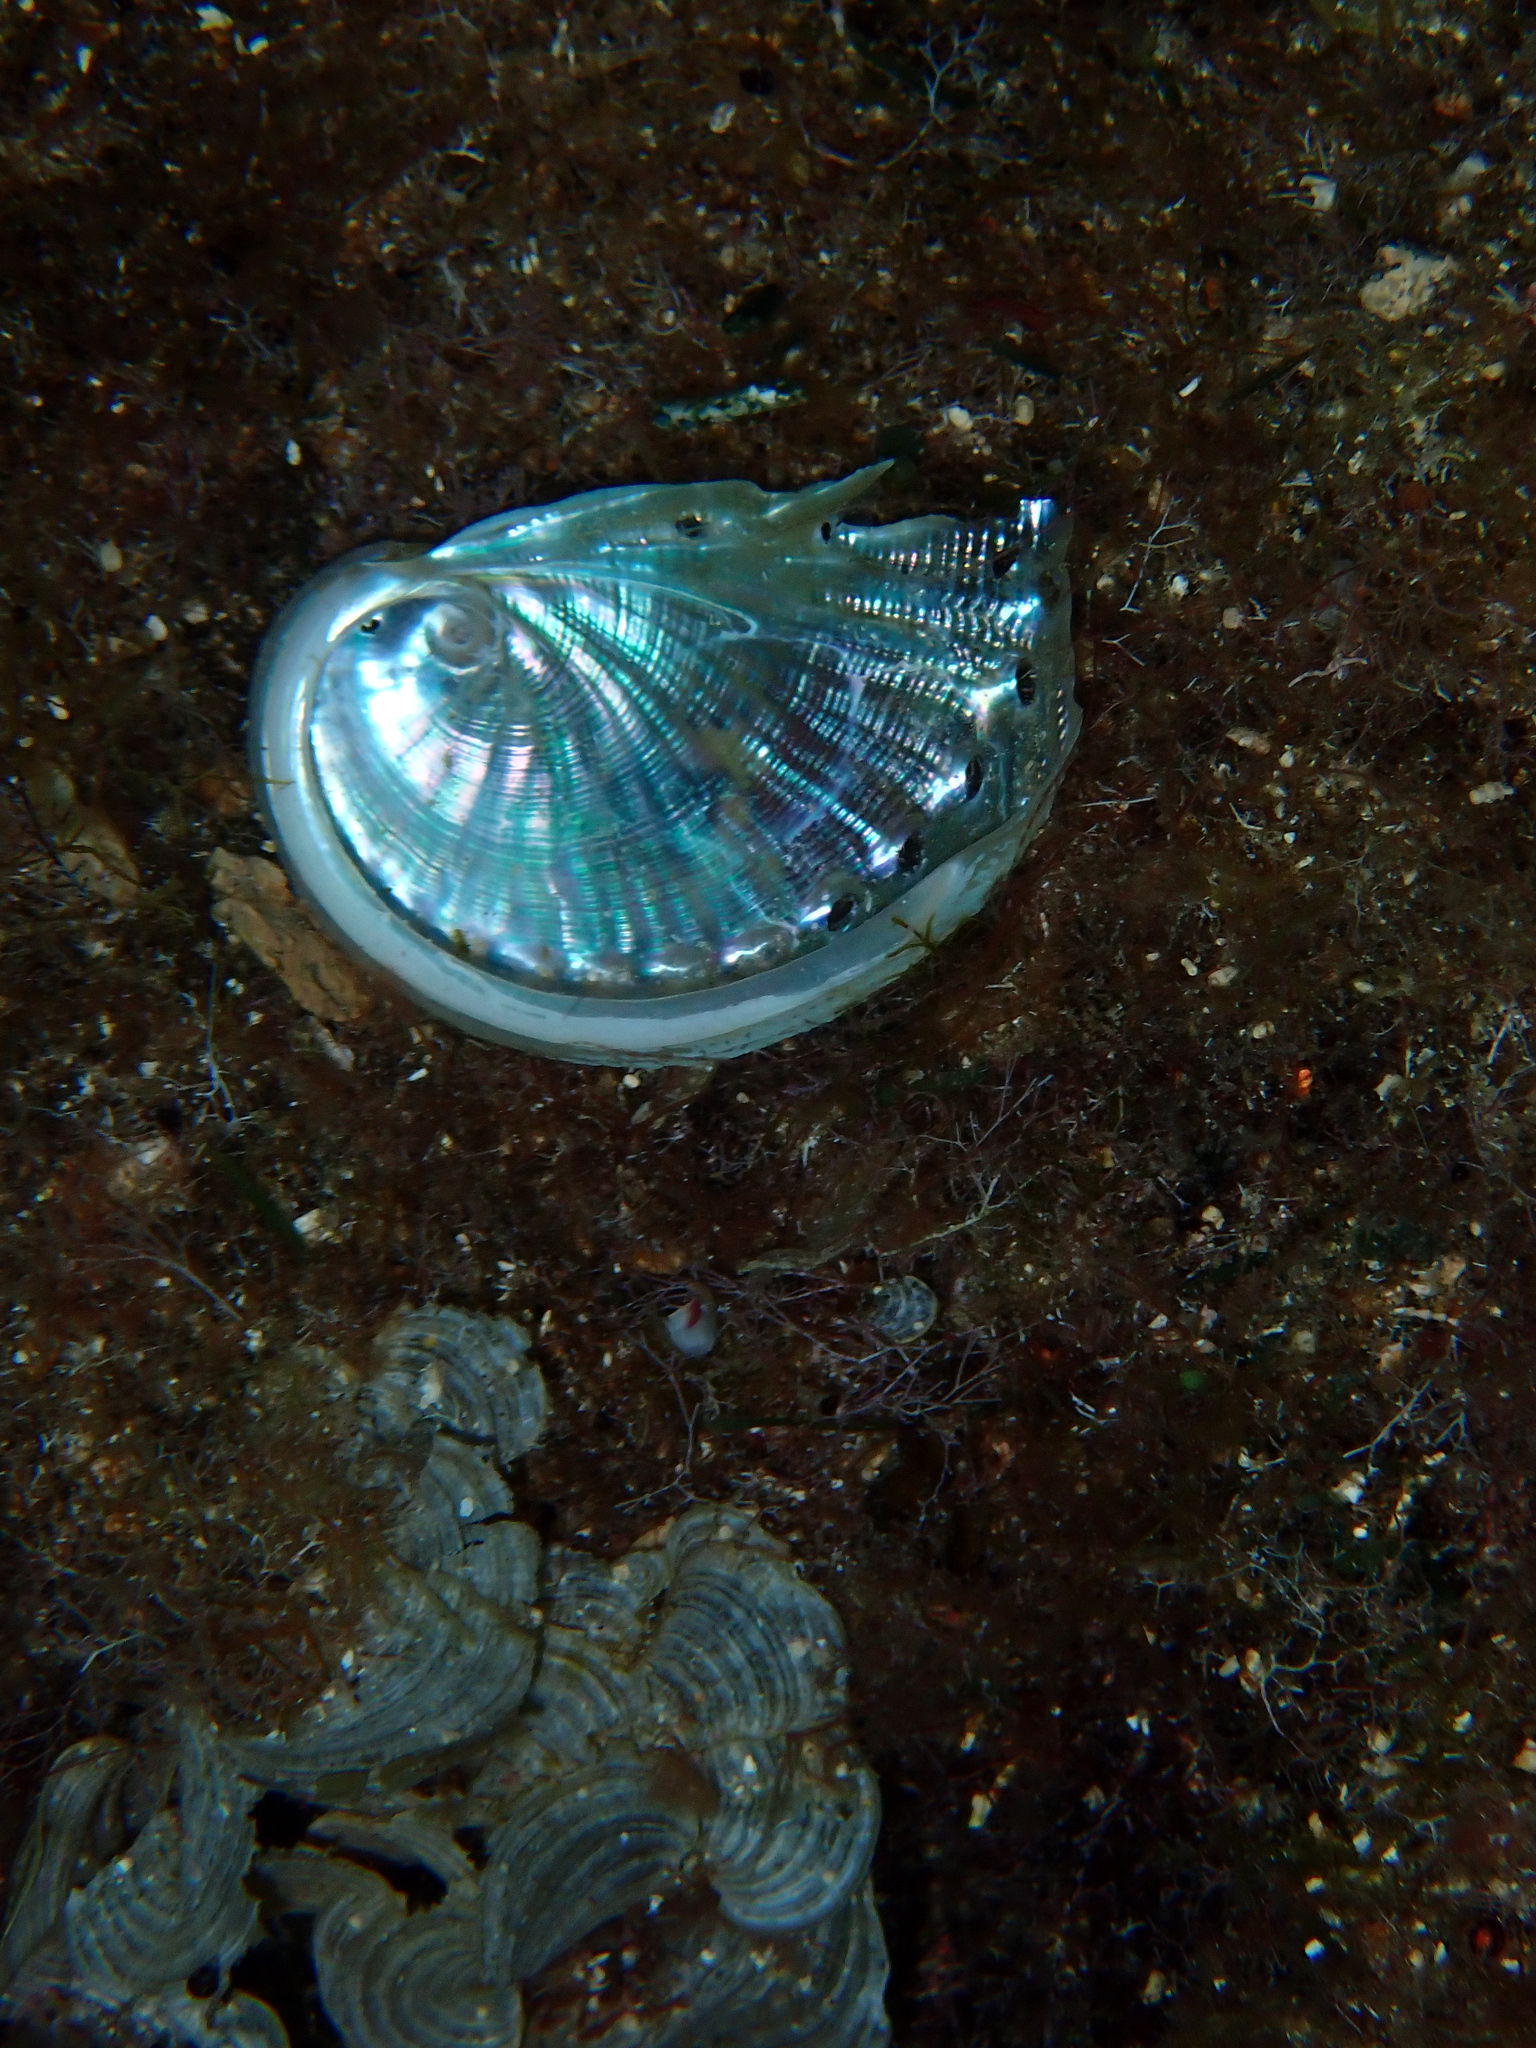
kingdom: Animalia
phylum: Mollusca
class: Gastropoda
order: Lepetellida
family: Haliotidae
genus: Haliotis
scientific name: Haliotis tuberculata
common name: Green ormer
